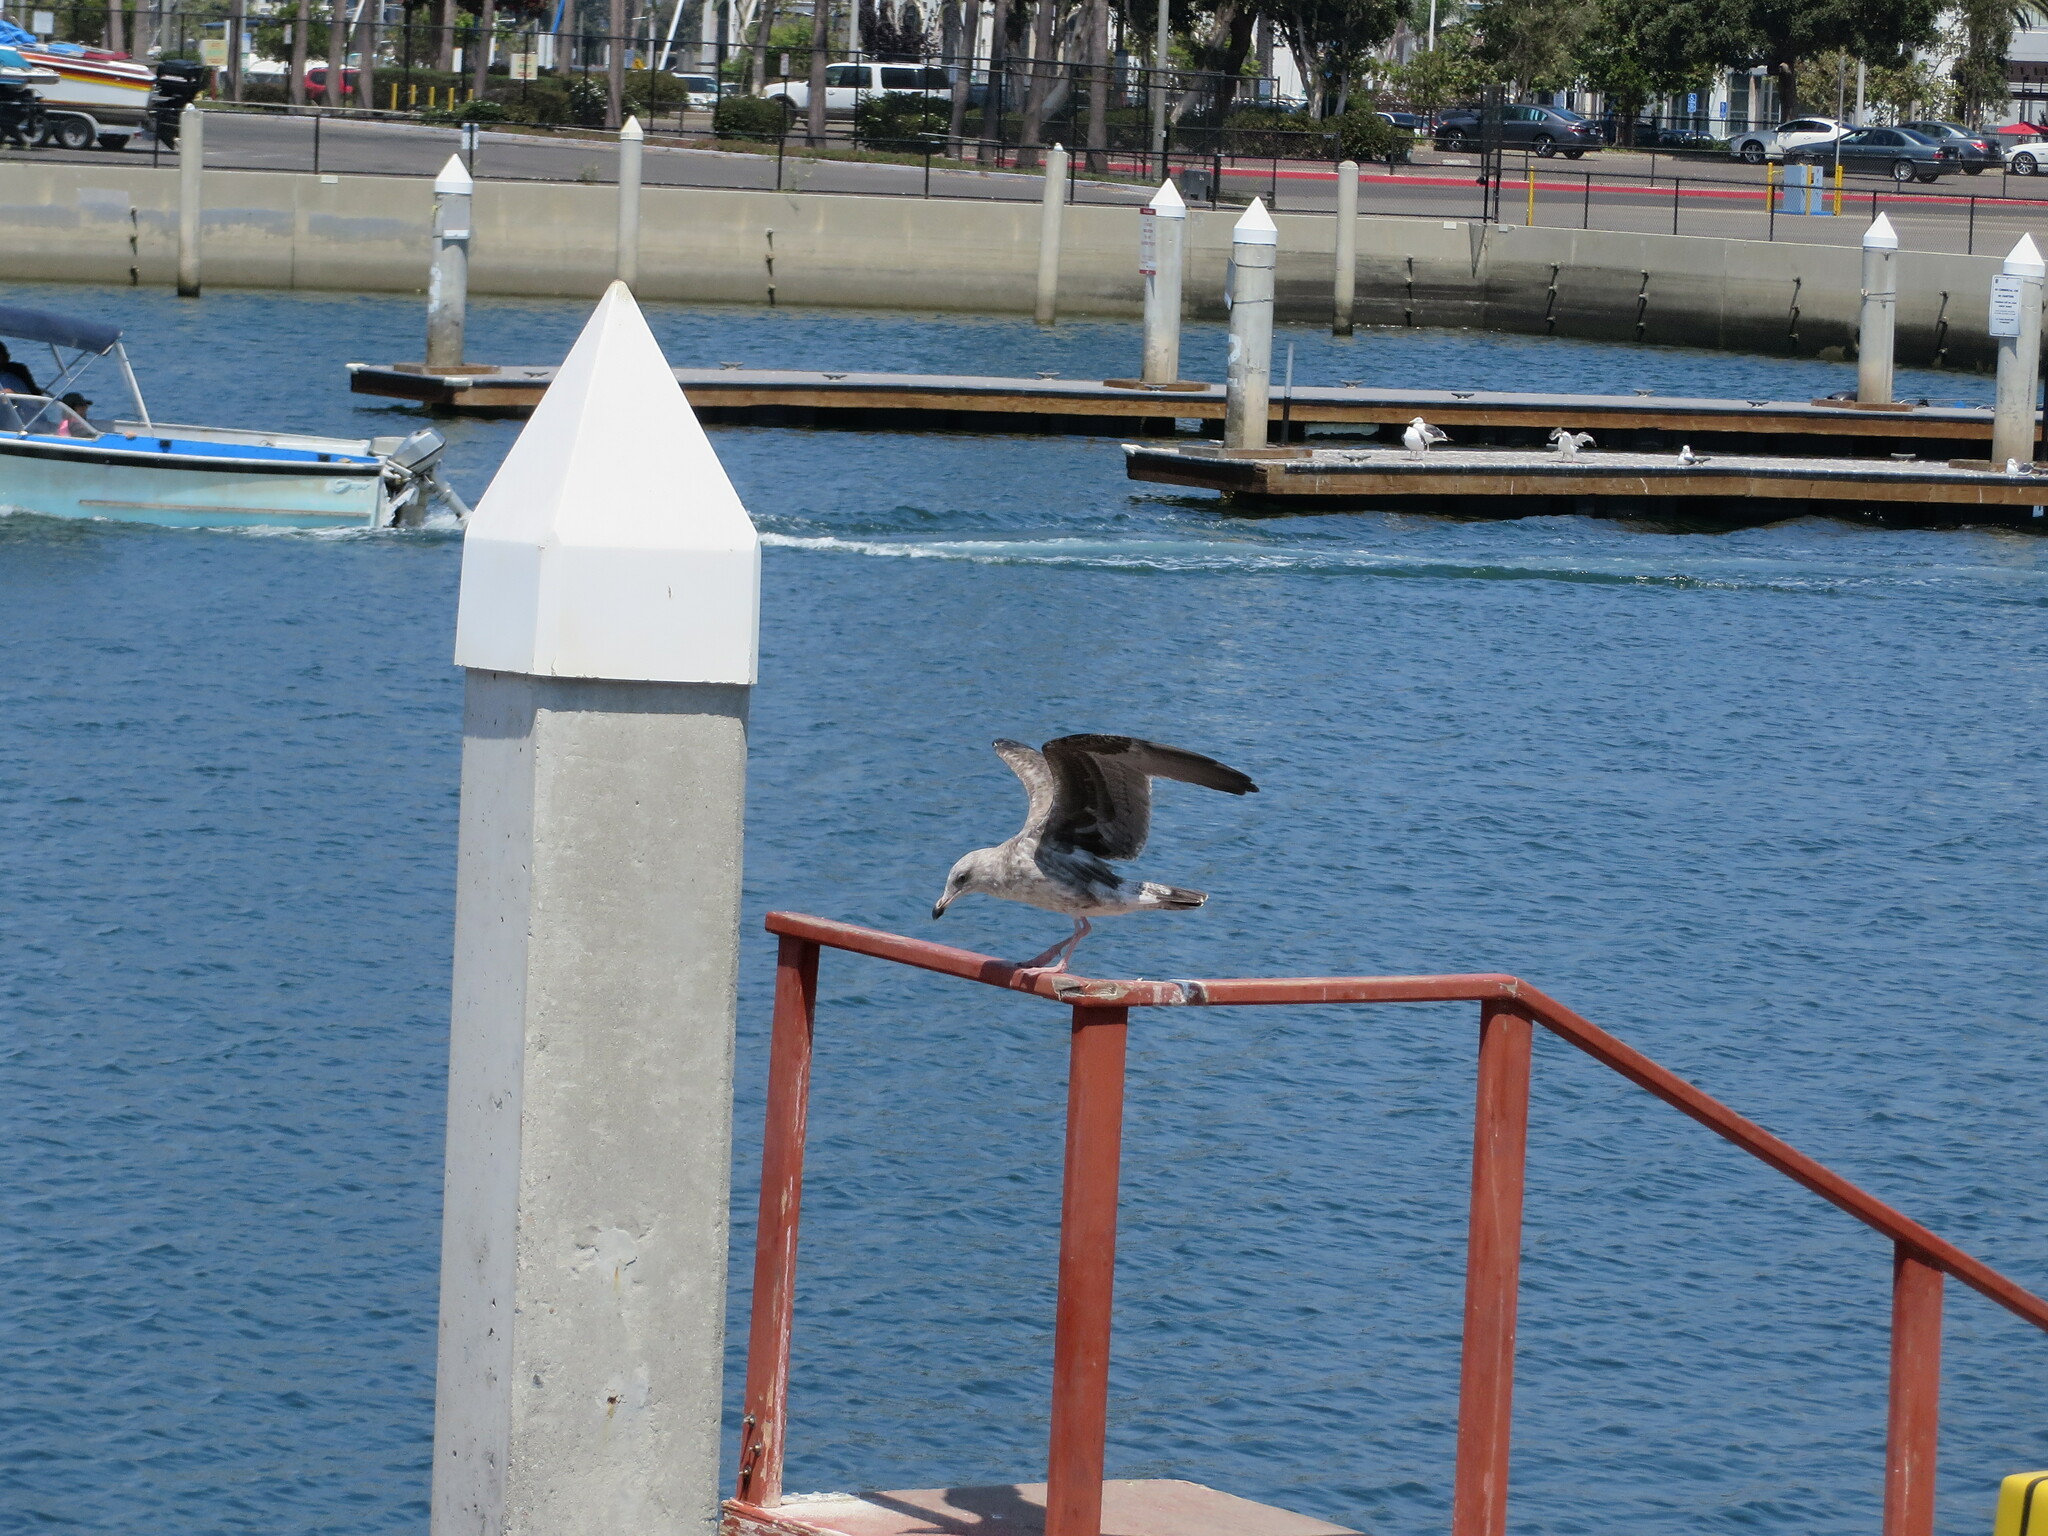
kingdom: Animalia
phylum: Chordata
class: Aves
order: Charadriiformes
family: Laridae
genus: Larus
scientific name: Larus occidentalis
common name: Western gull
